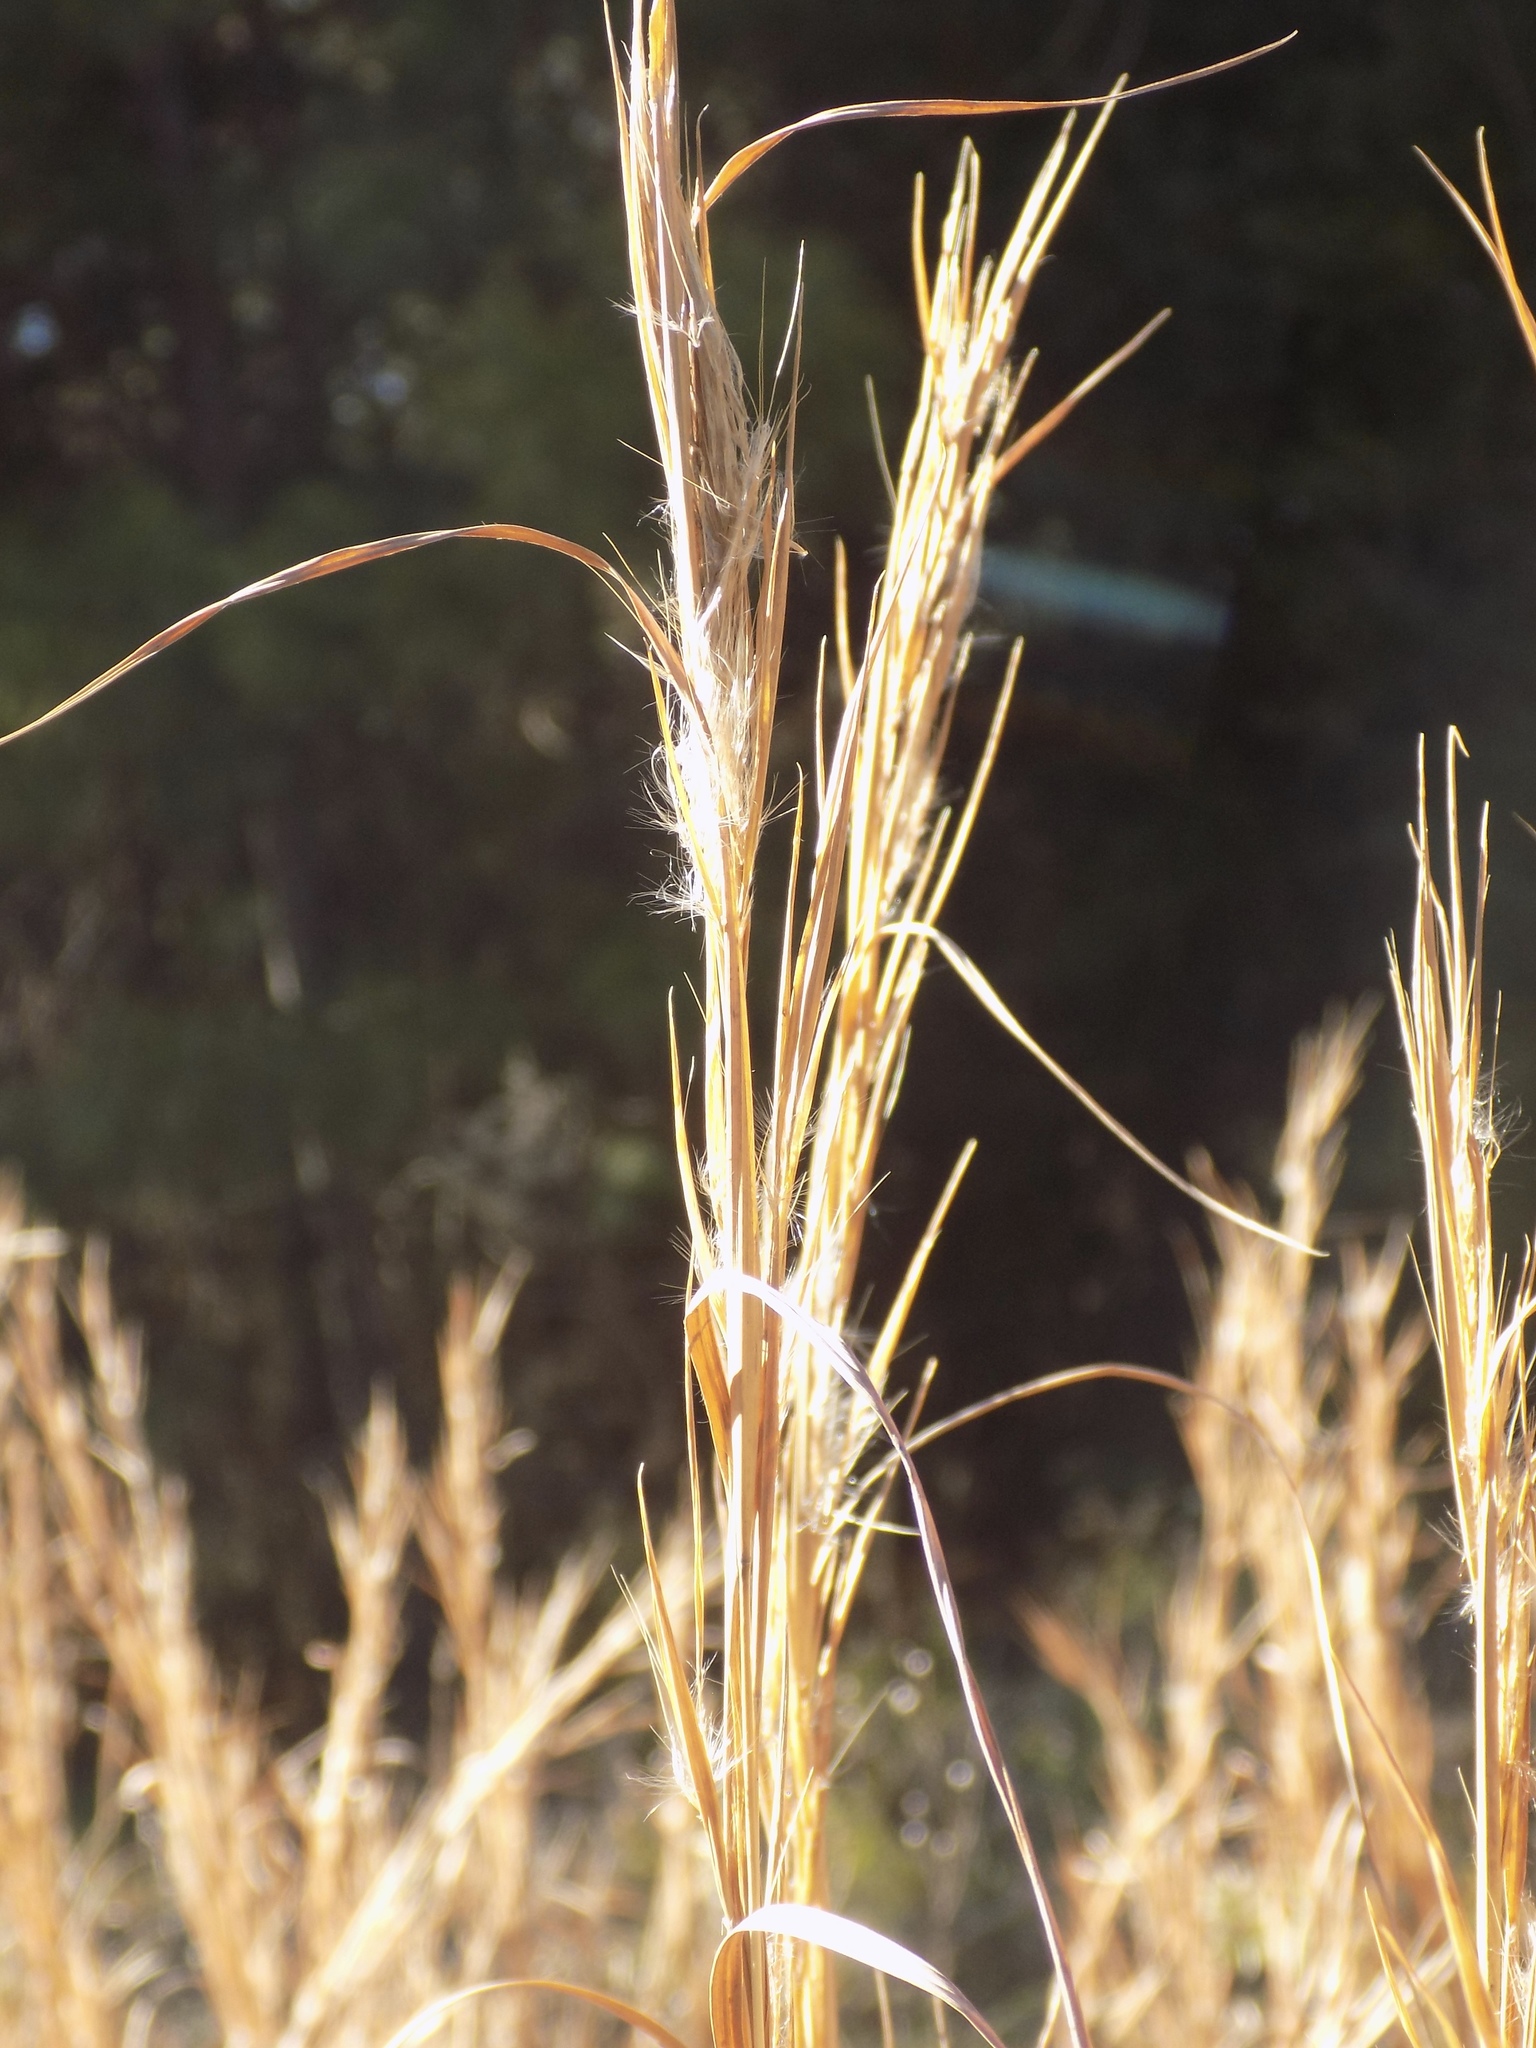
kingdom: Plantae
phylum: Tracheophyta
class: Liliopsida
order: Poales
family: Poaceae
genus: Andropogon
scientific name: Andropogon virginicus
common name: Broomsedge bluestem
